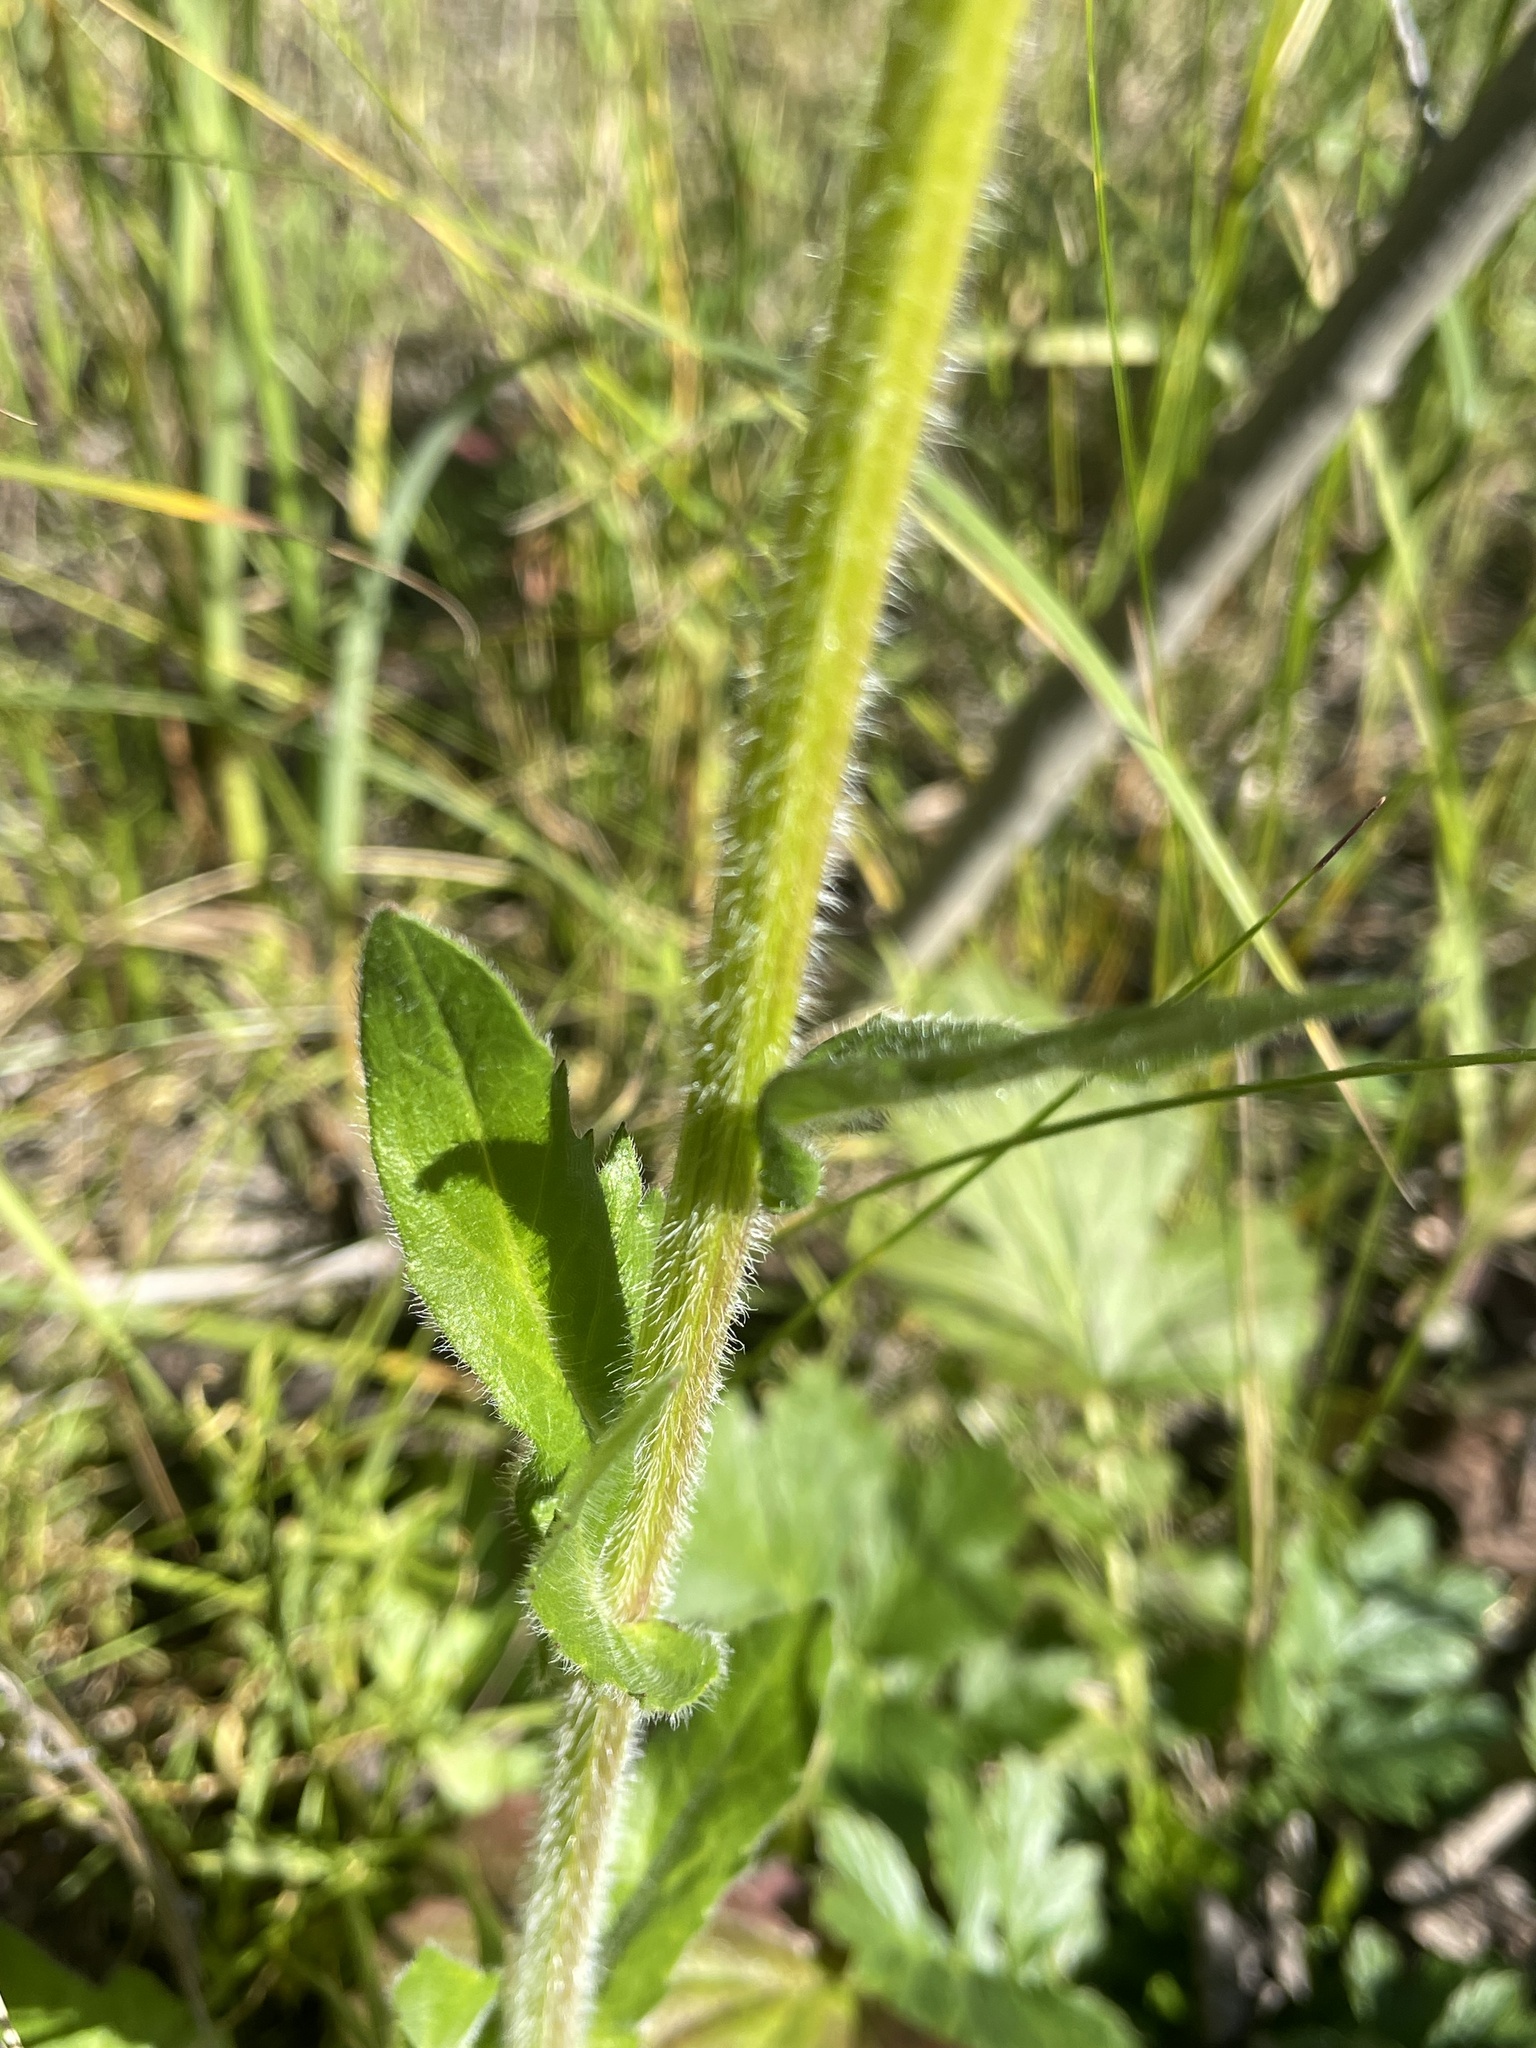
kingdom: Plantae
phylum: Tracheophyta
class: Magnoliopsida
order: Asterales
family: Asteraceae
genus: Erigeron
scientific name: Erigeron philadelphicus
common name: Robin's-plantain
